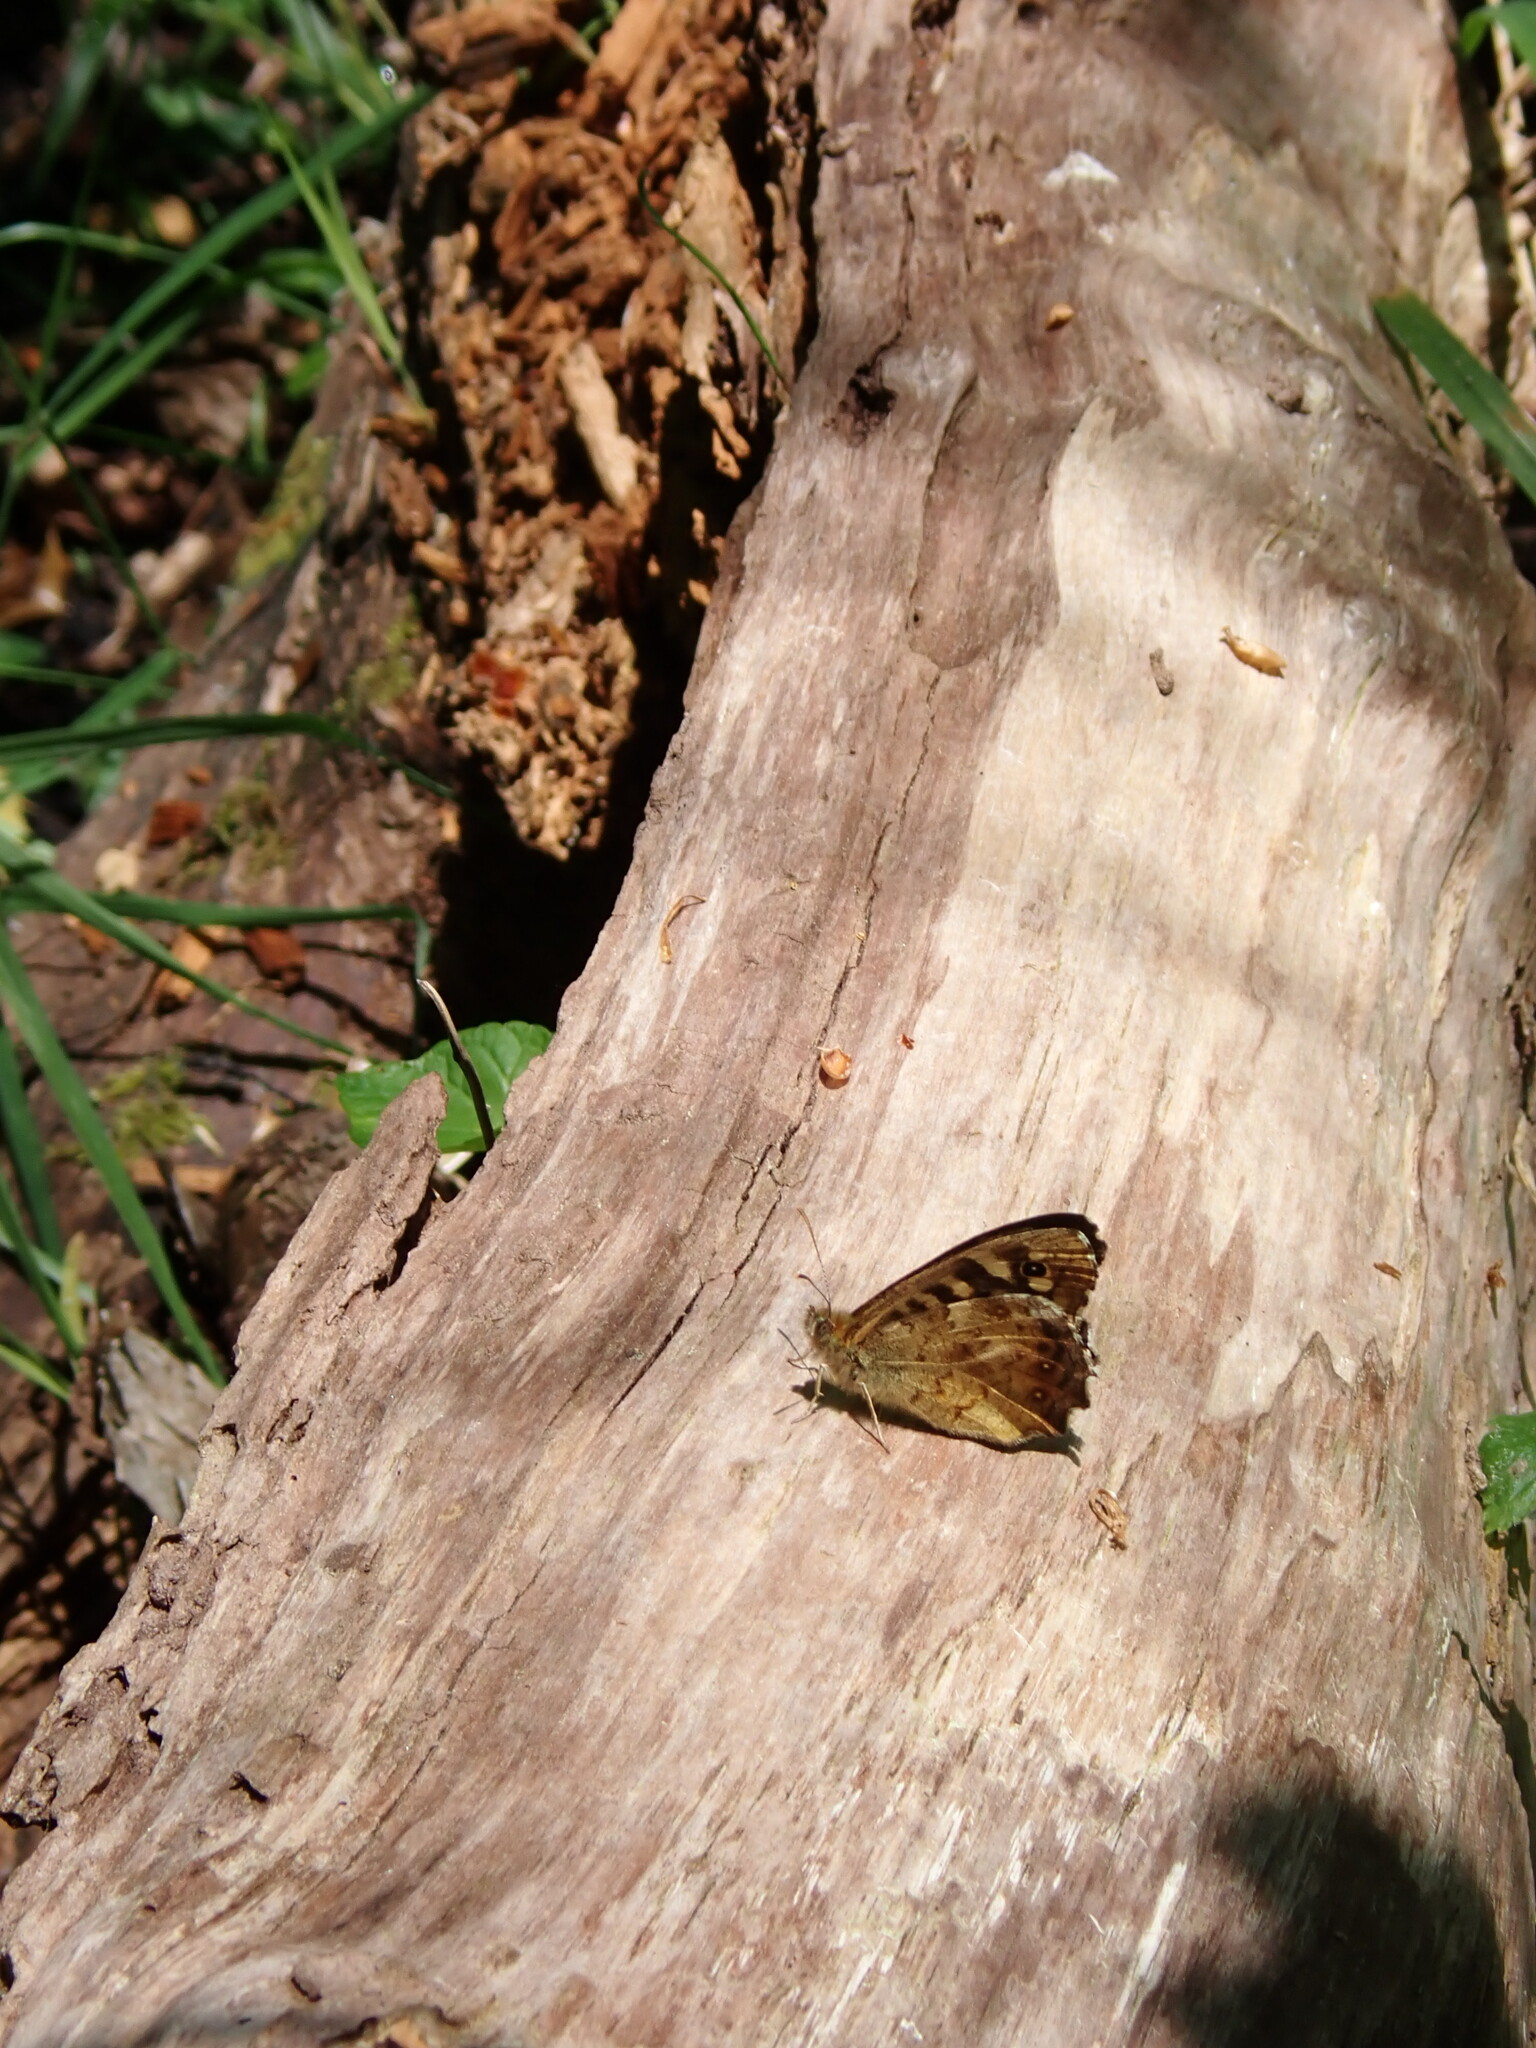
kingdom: Animalia
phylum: Arthropoda
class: Insecta
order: Lepidoptera
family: Nymphalidae
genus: Pararge
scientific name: Pararge aegeria
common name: Speckled wood
